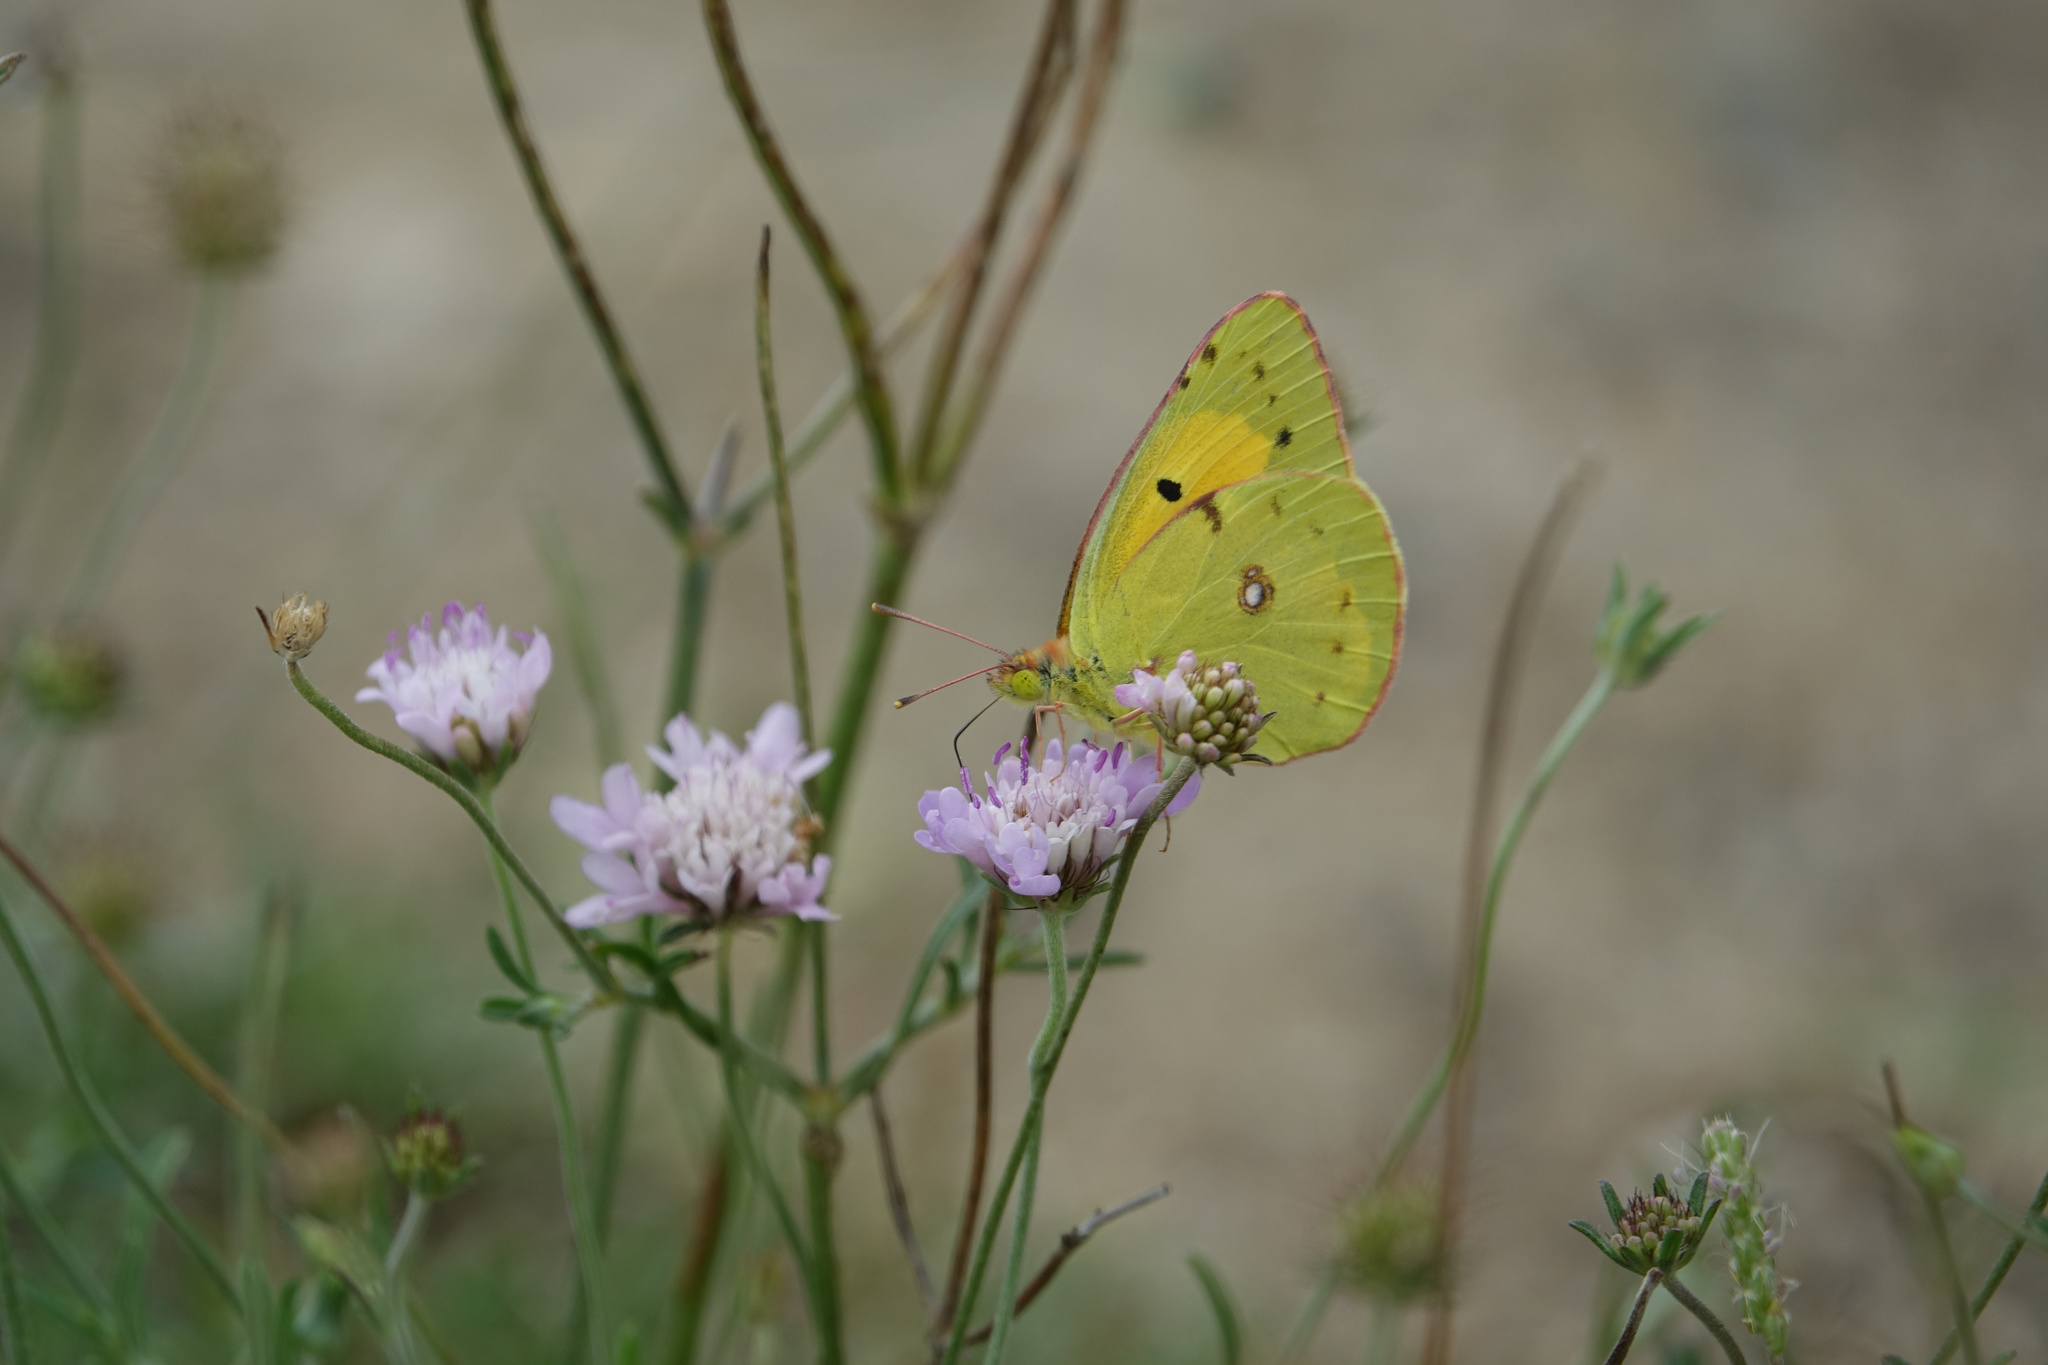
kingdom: Animalia
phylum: Arthropoda
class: Insecta
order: Lepidoptera
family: Pieridae
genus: Colias
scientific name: Colias croceus
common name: Clouded yellow
